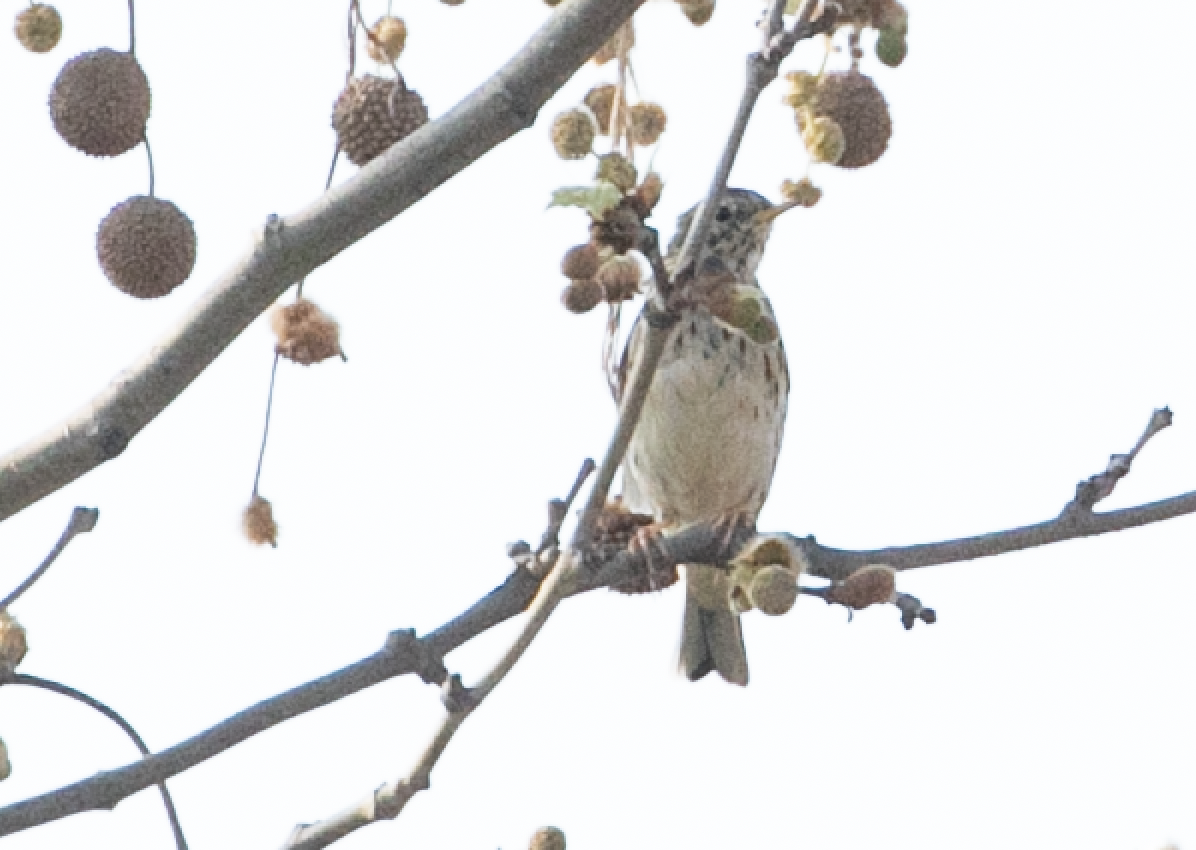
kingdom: Animalia
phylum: Chordata
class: Aves
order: Passeriformes
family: Motacillidae
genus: Anthus
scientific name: Anthus pratensis
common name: Meadow pipit
